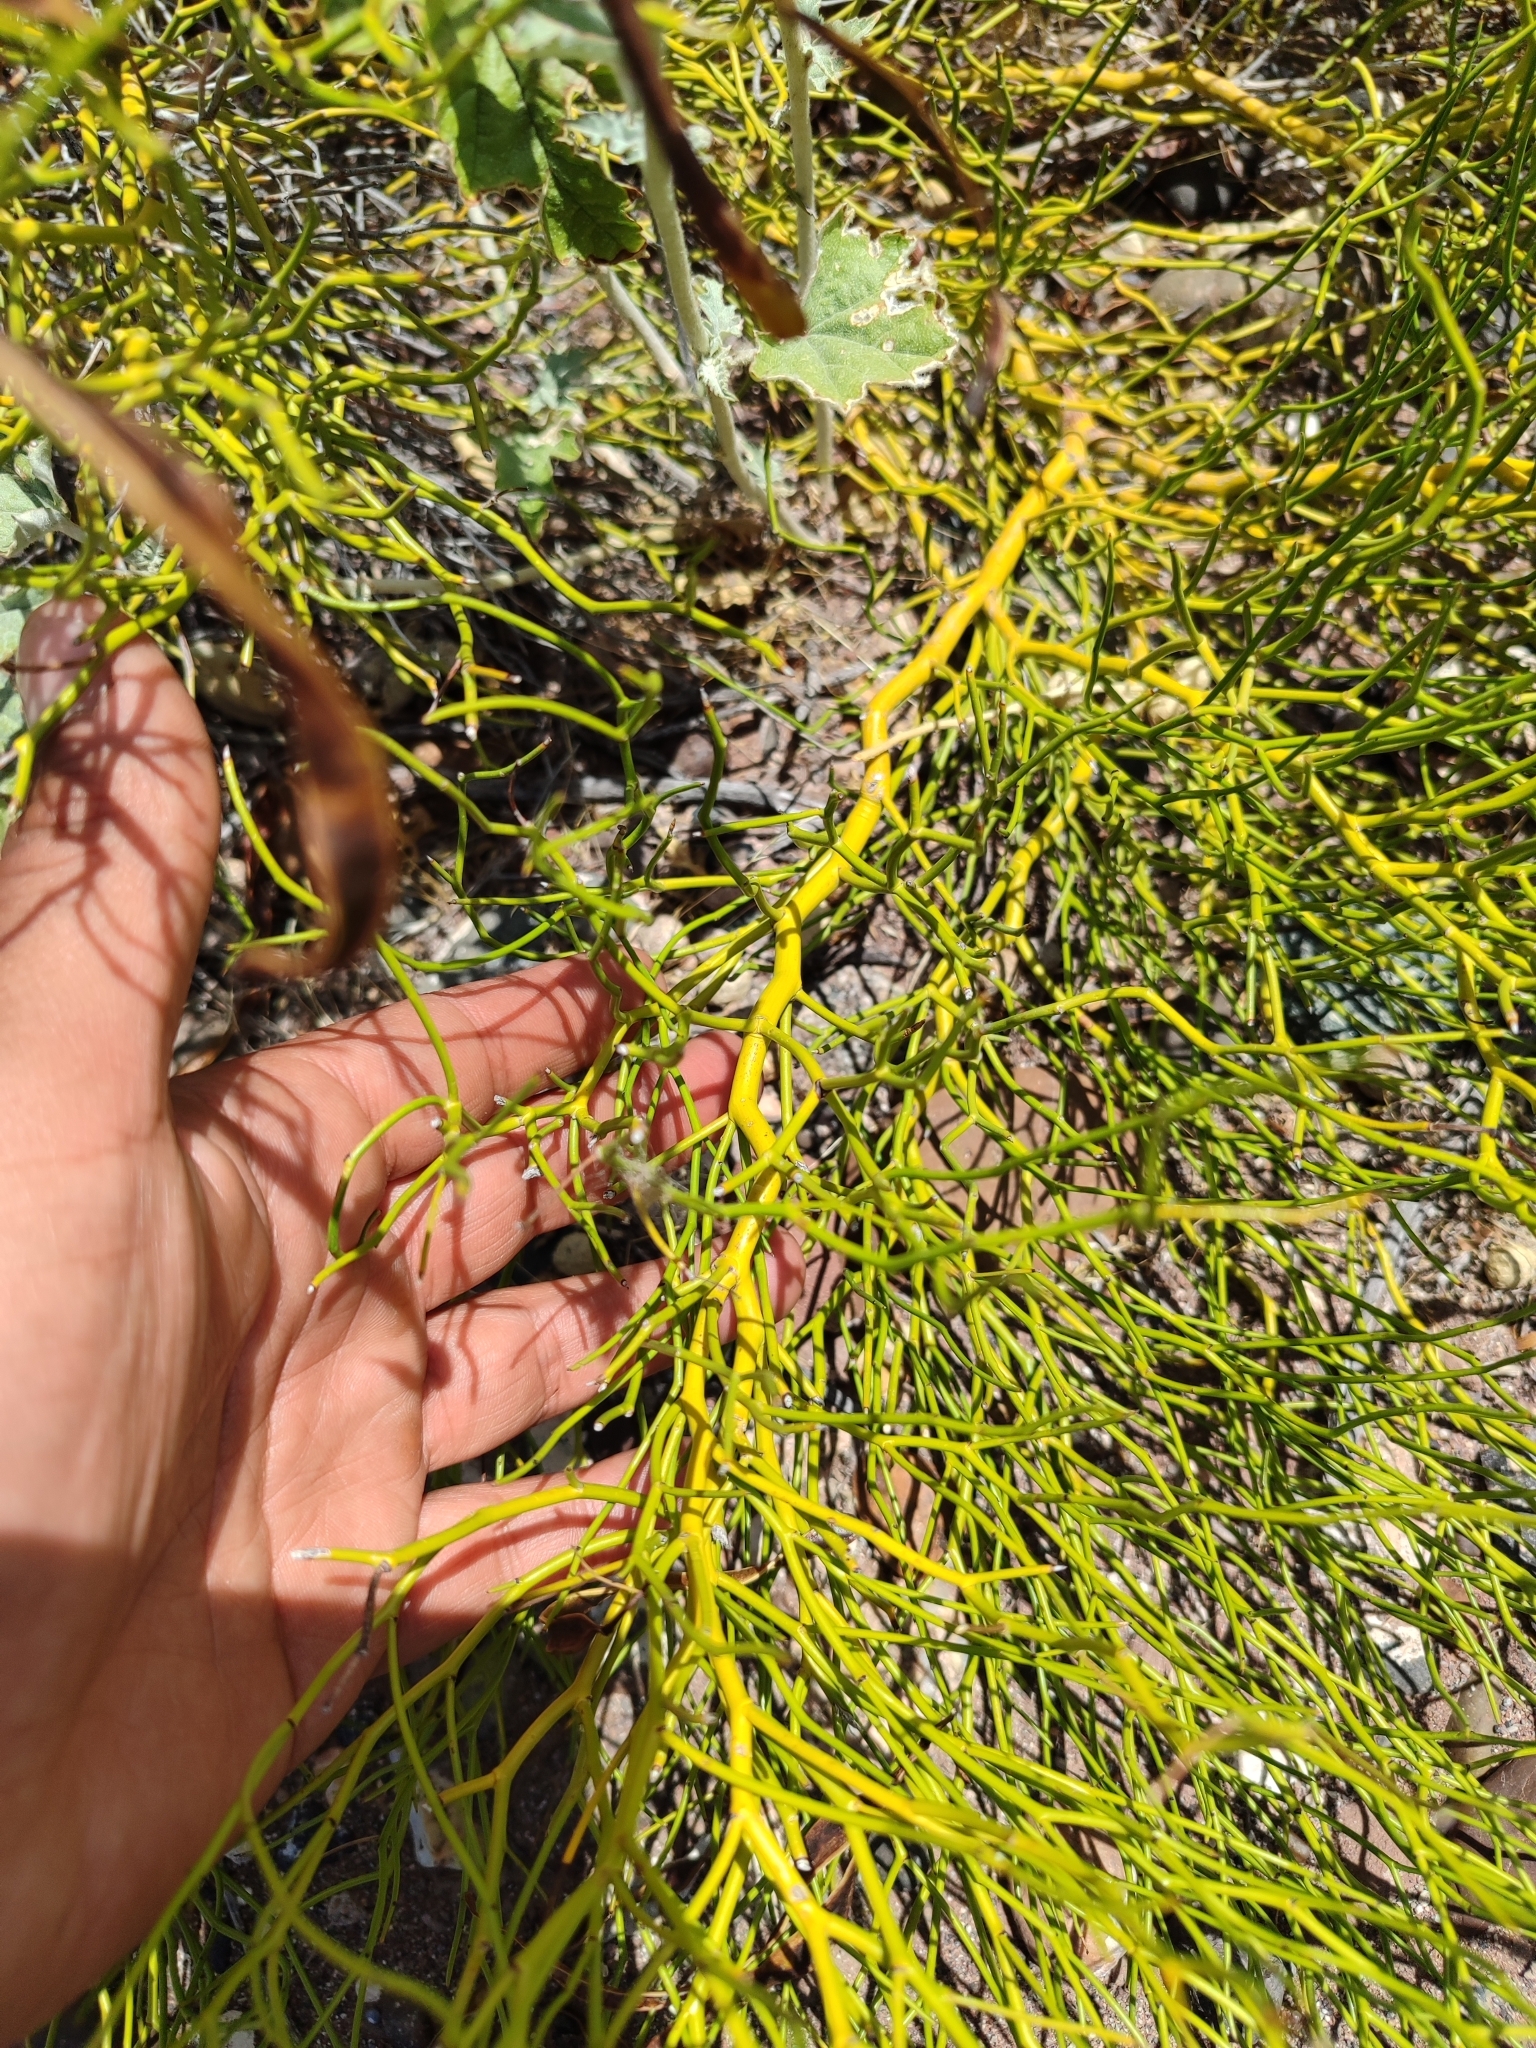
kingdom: Plantae
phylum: Tracheophyta
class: Magnoliopsida
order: Fabales
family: Fabaceae
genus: Senna
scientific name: Senna pachyrrhiza
